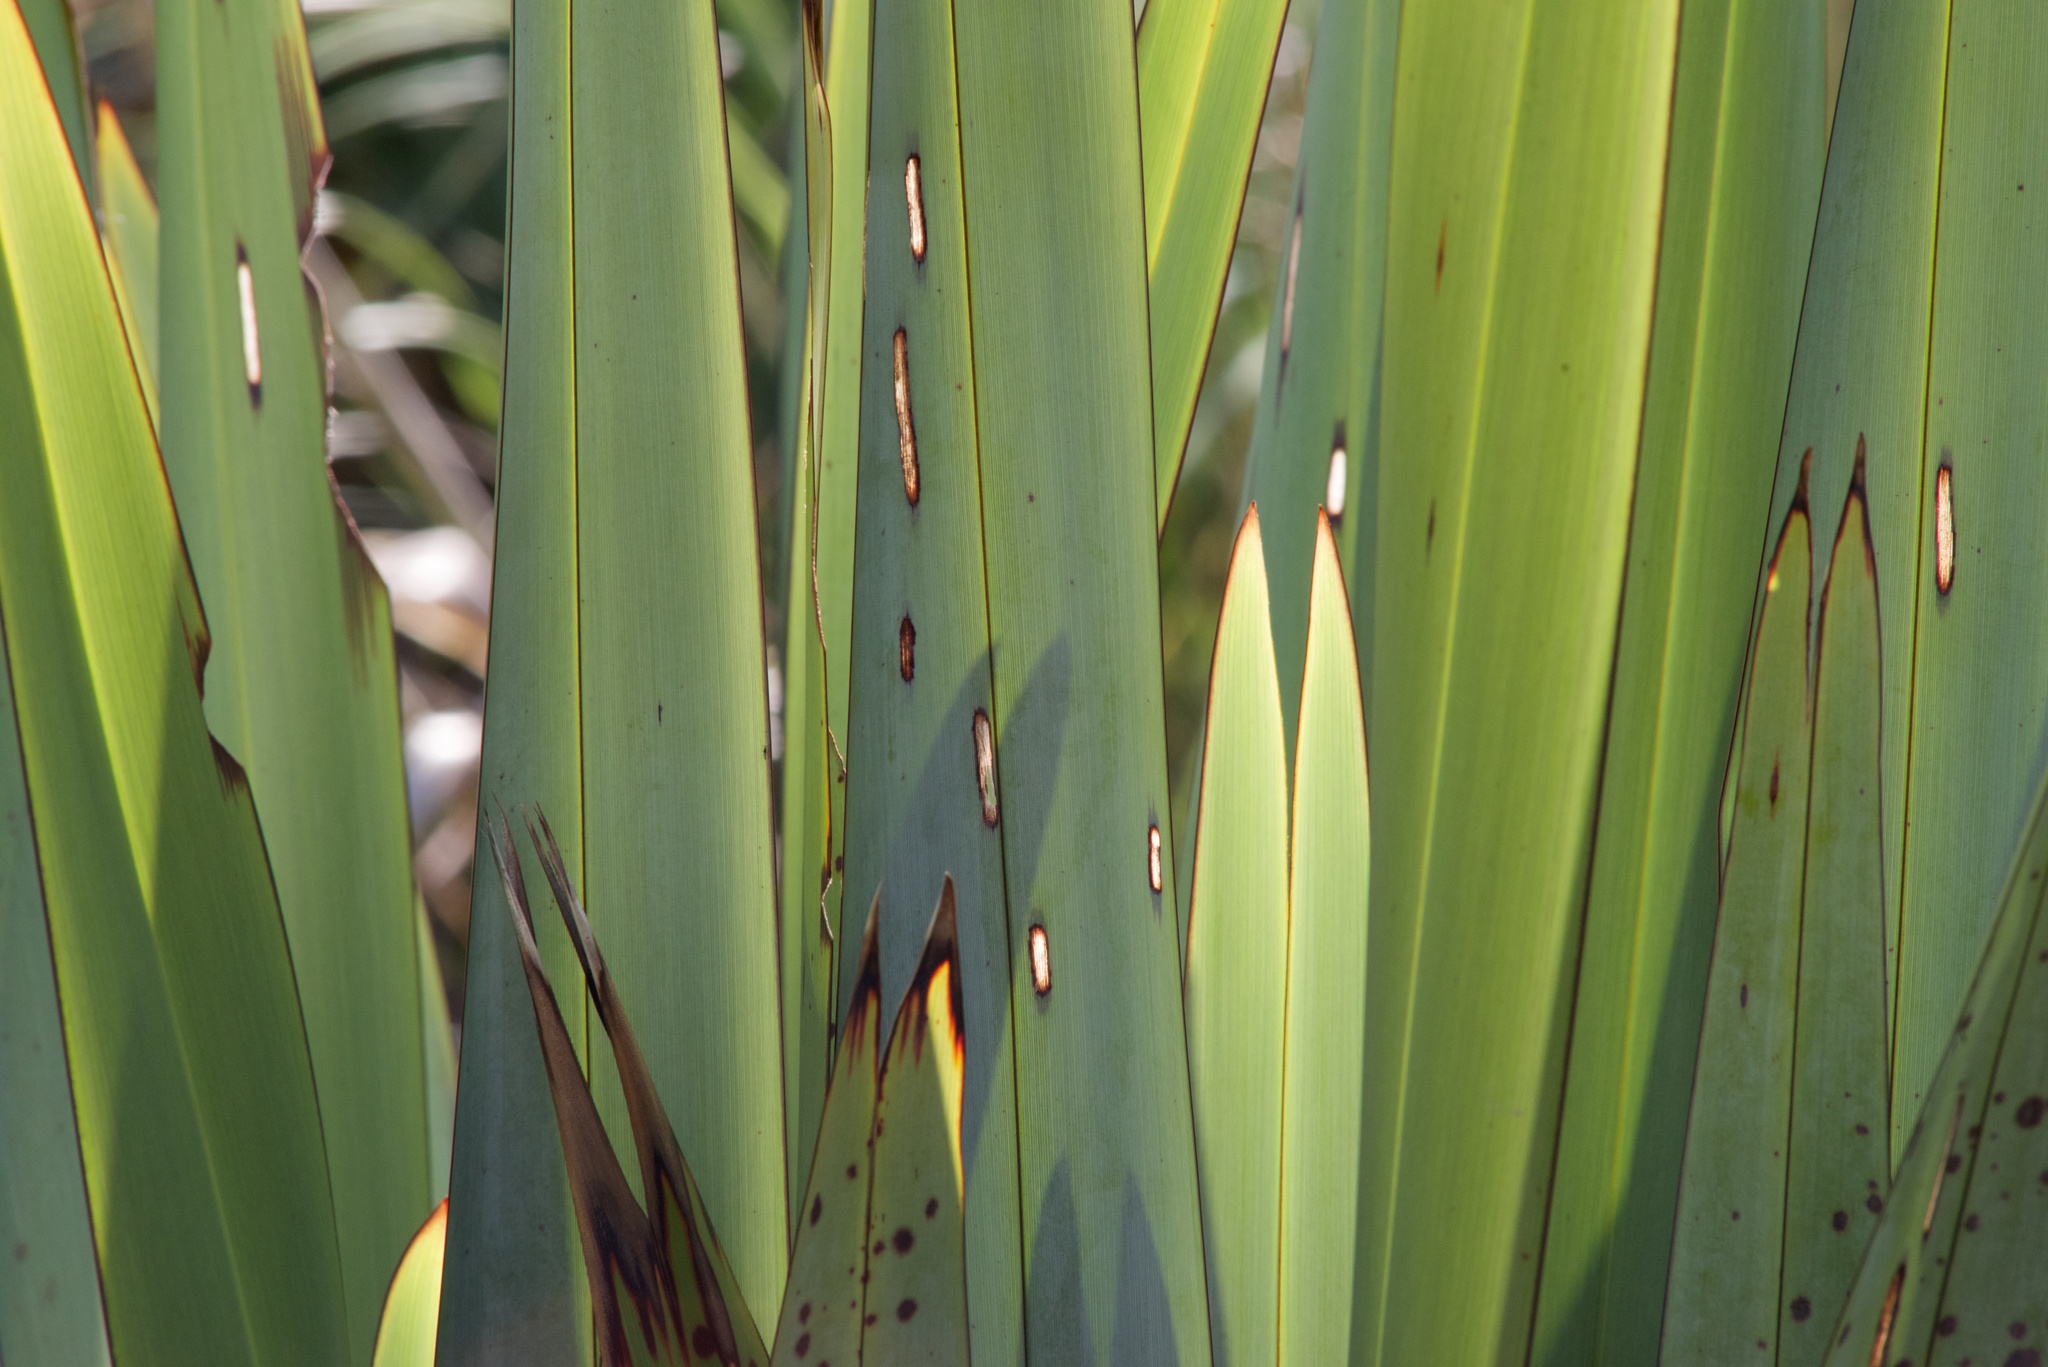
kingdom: Plantae
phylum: Tracheophyta
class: Liliopsida
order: Asparagales
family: Asphodelaceae
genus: Phormium
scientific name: Phormium tenax
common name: New zealand flax
